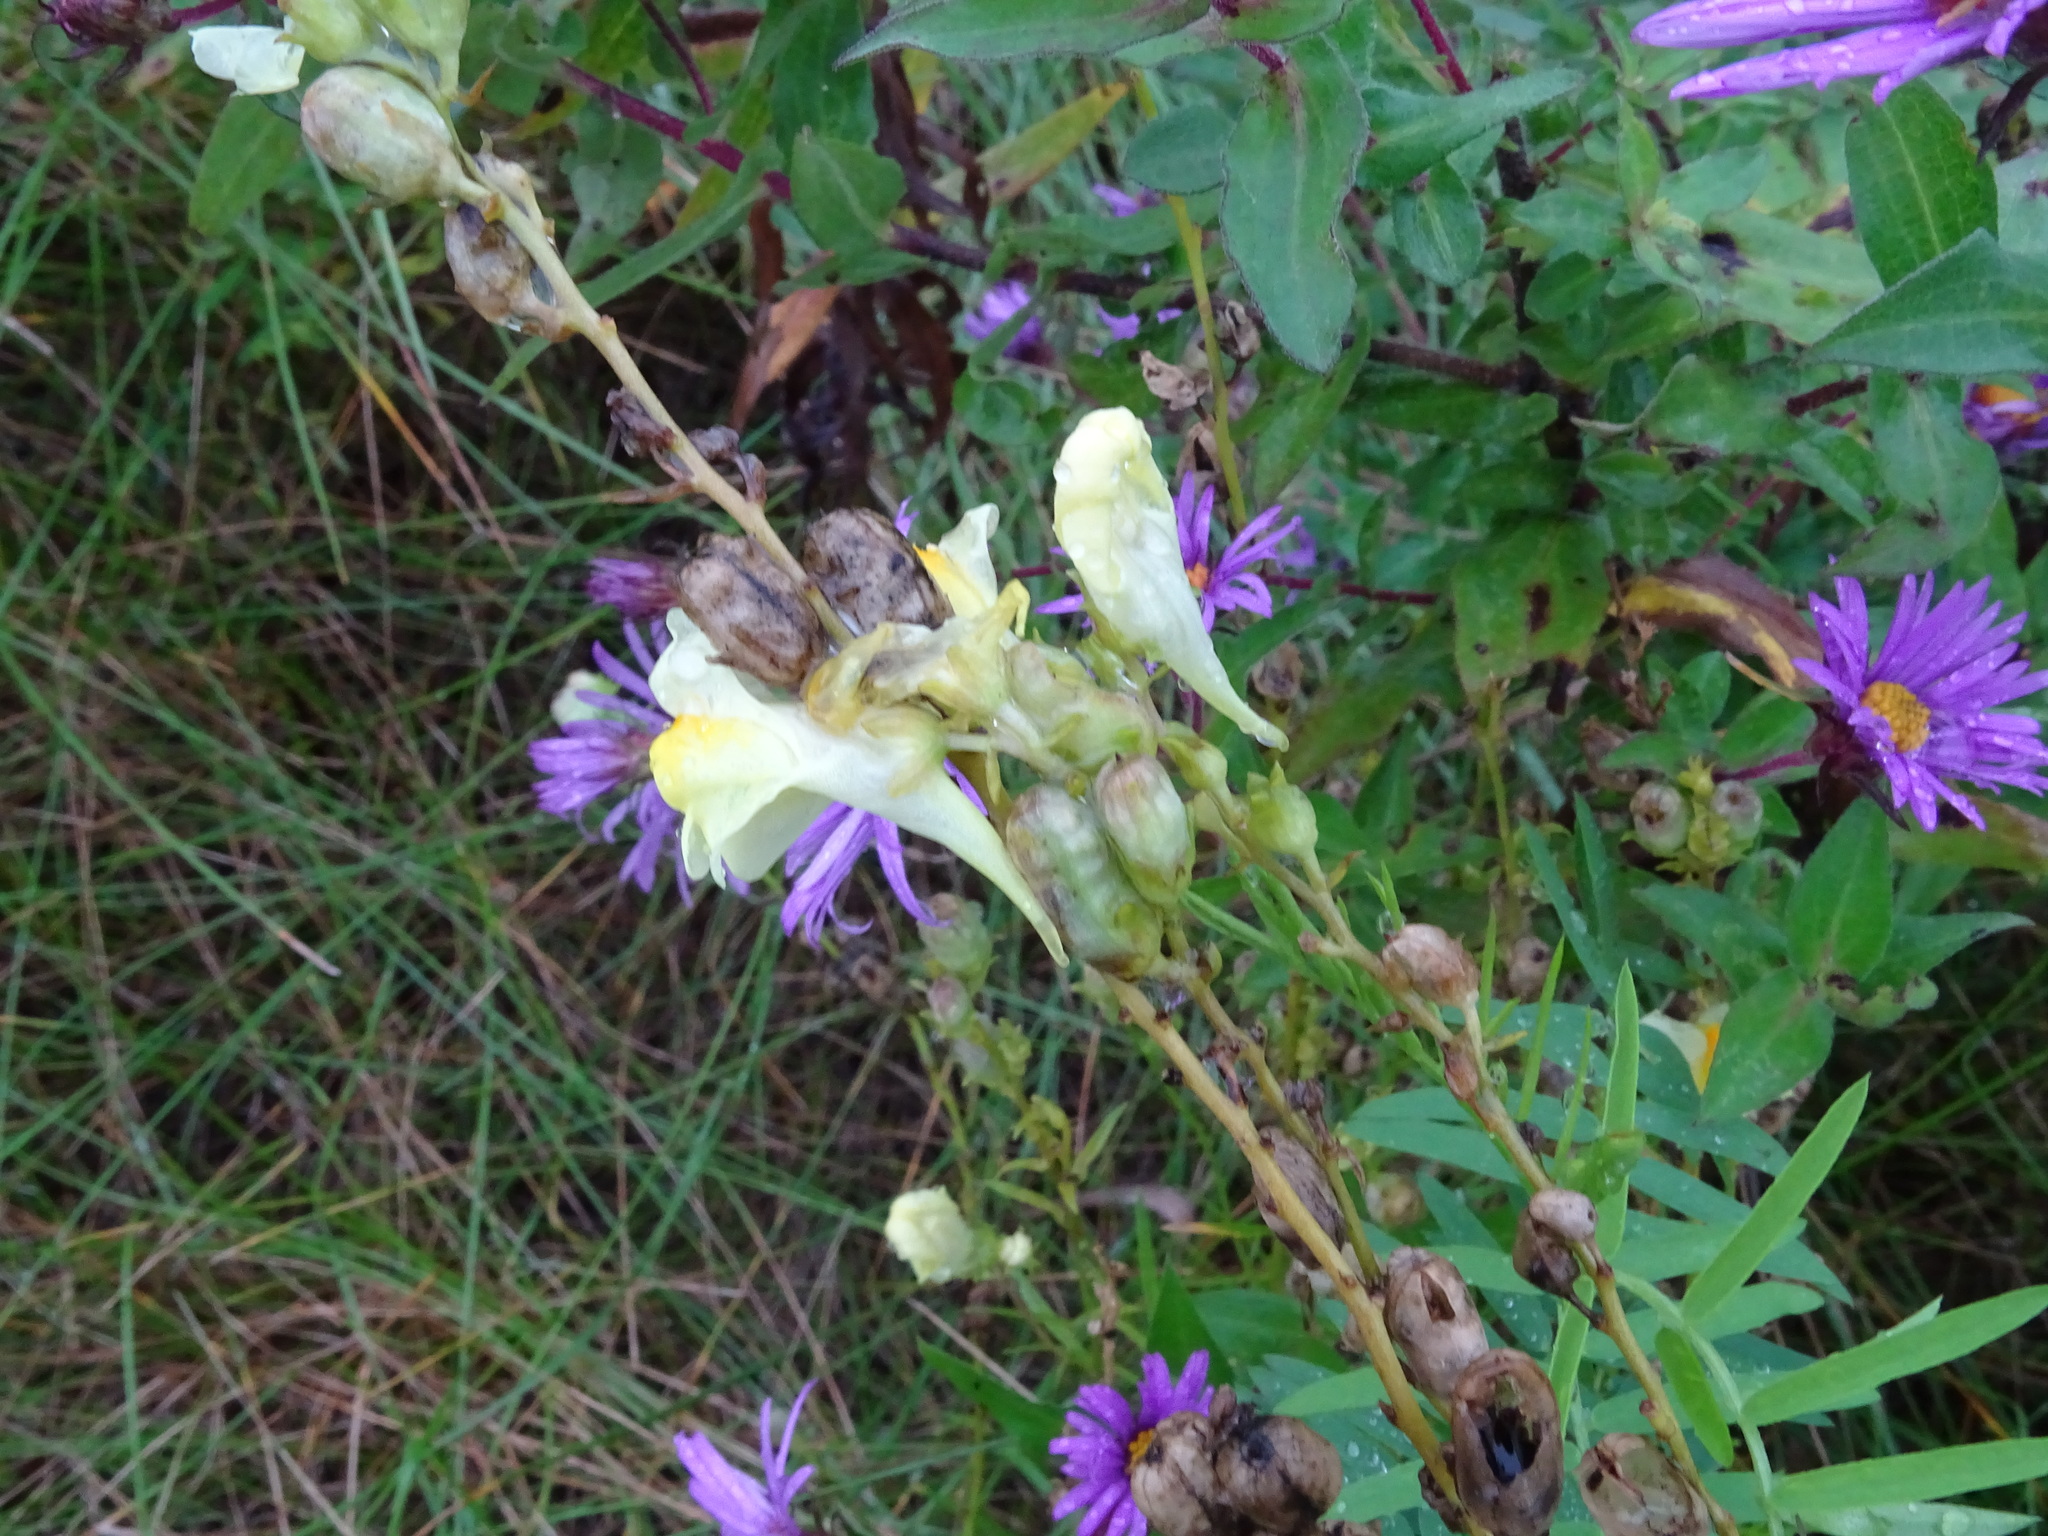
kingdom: Plantae
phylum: Tracheophyta
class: Magnoliopsida
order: Lamiales
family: Plantaginaceae
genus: Linaria
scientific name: Linaria vulgaris
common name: Butter and eggs
